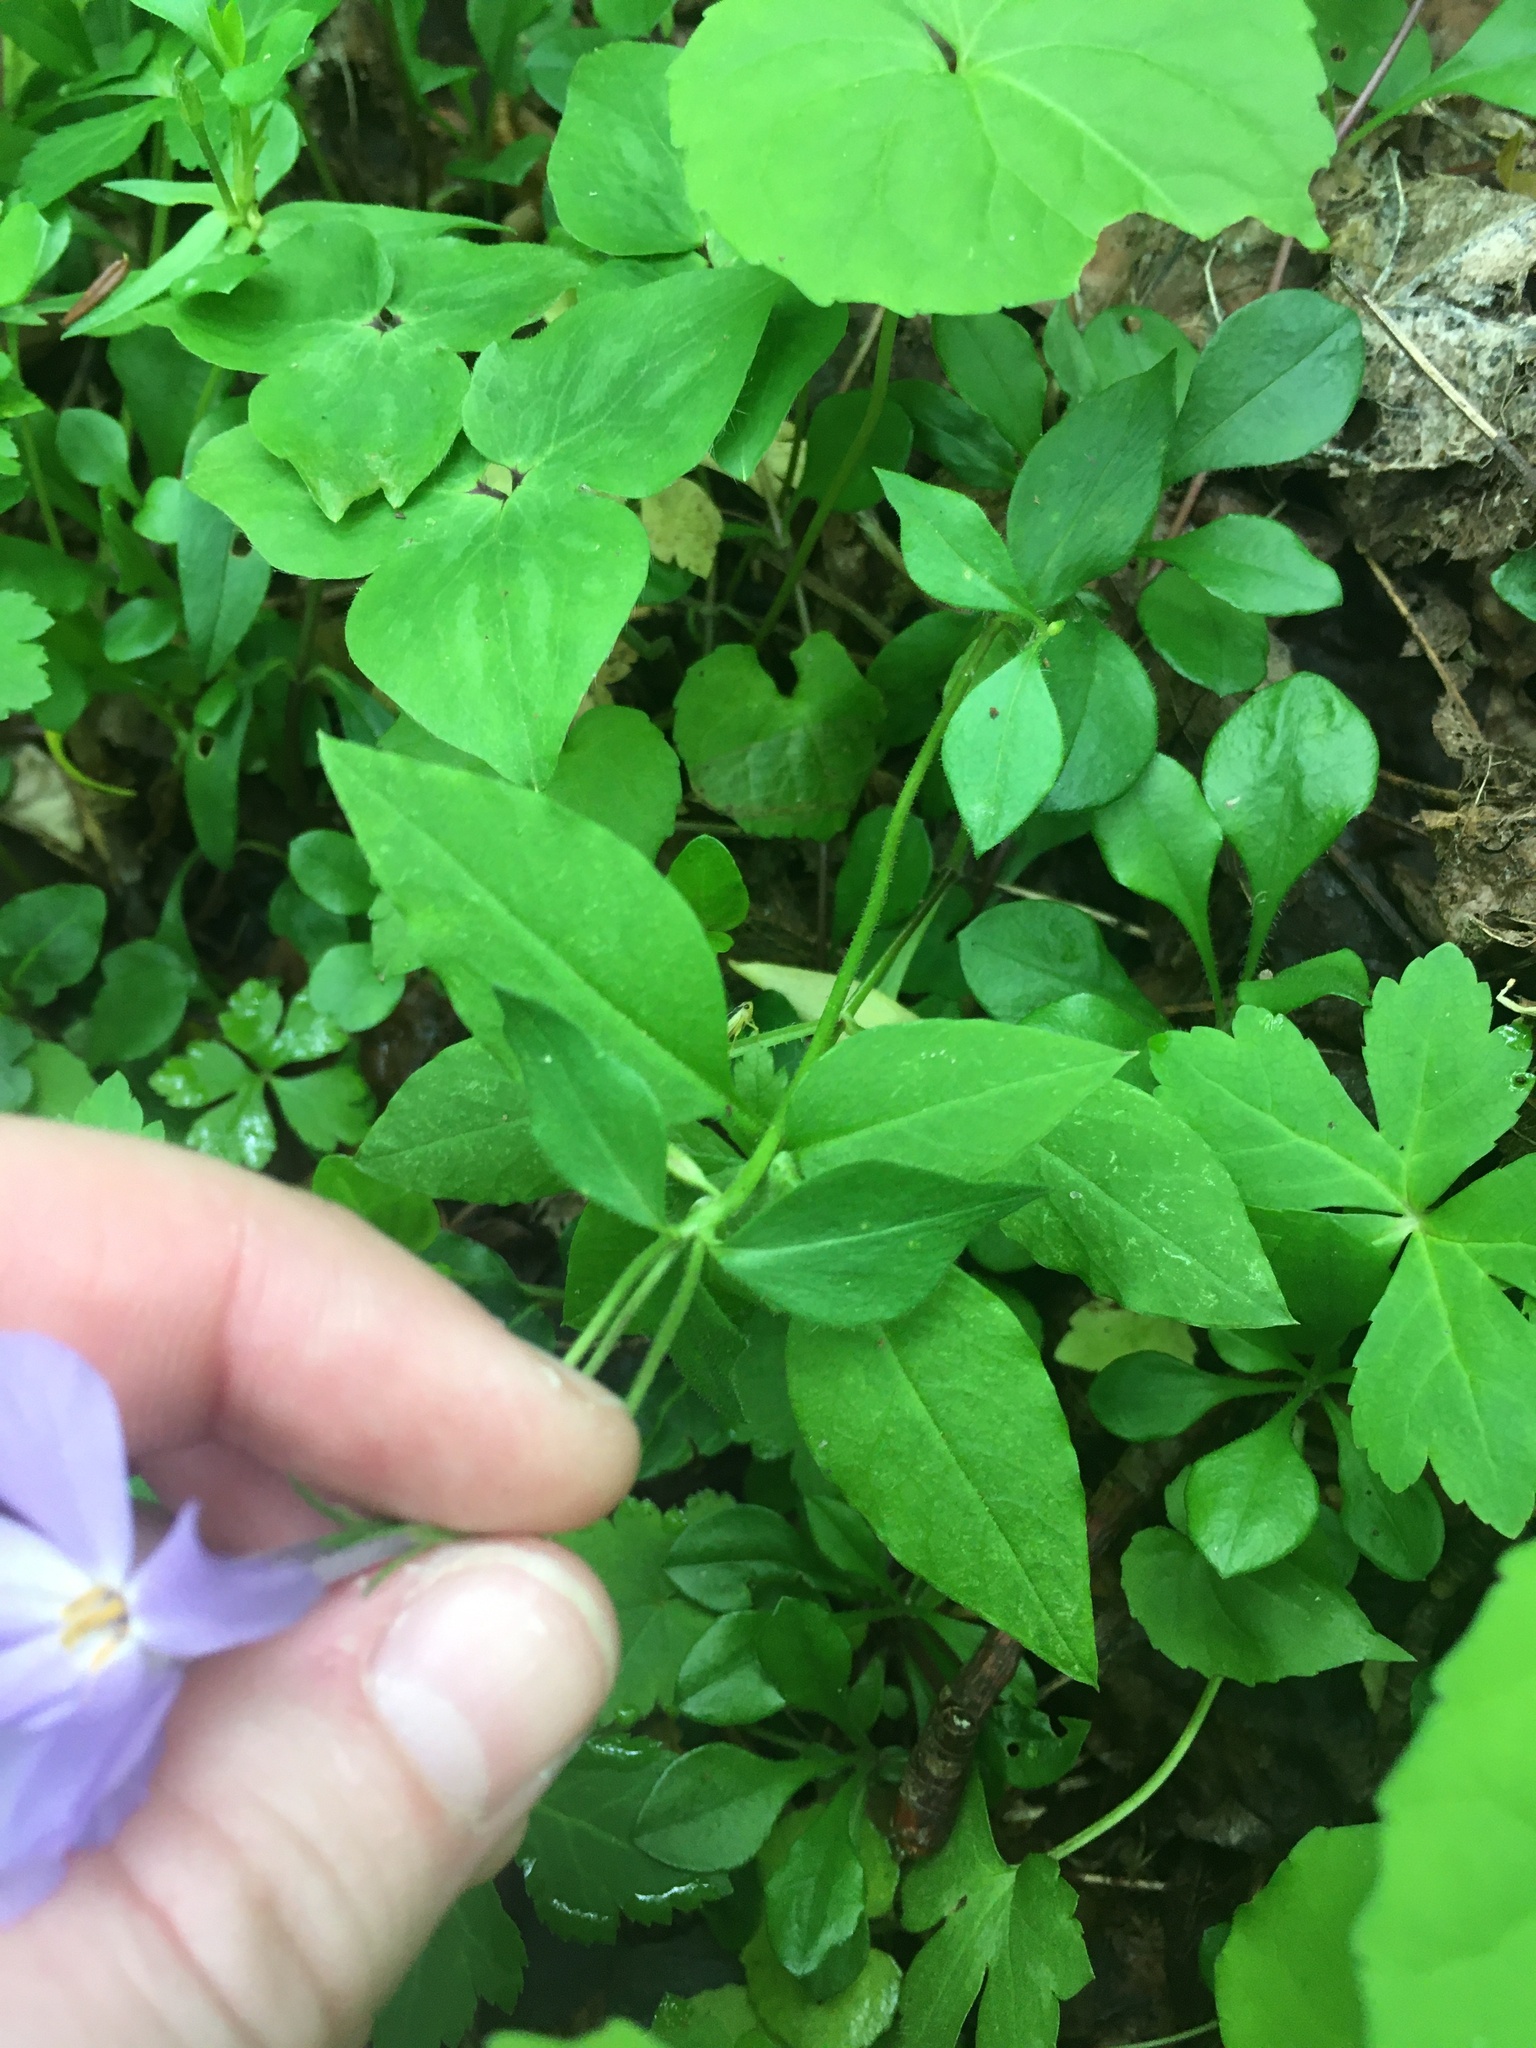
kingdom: Plantae
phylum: Tracheophyta
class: Magnoliopsida
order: Ericales
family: Polemoniaceae
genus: Phlox
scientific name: Phlox stolonifera
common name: Creeping phlox
